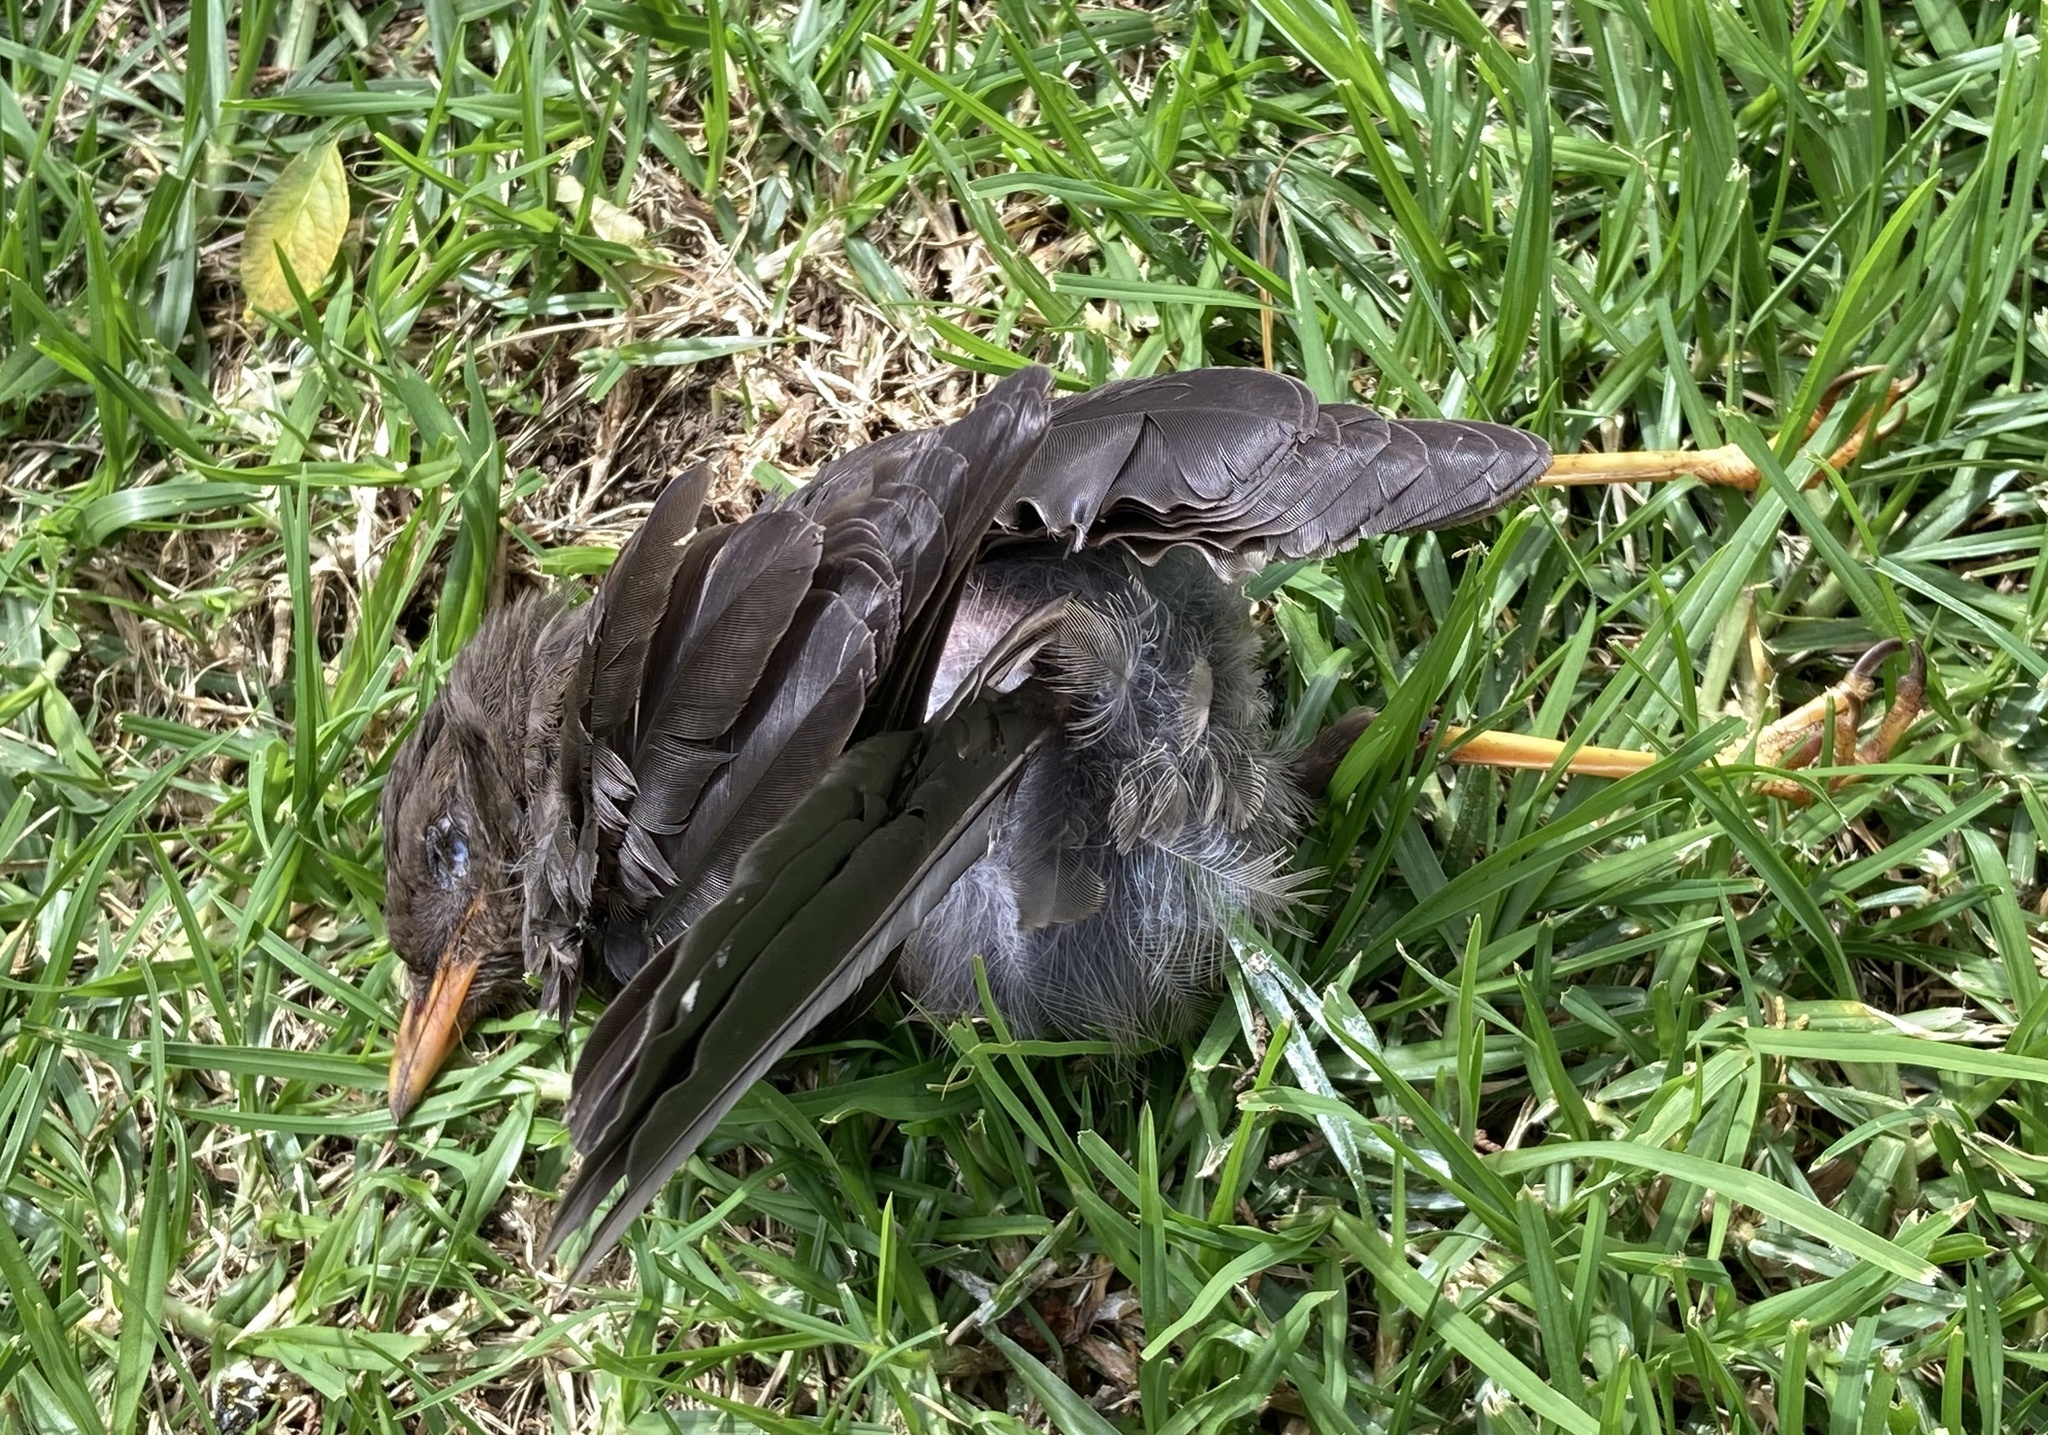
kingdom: Animalia
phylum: Chordata
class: Aves
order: Passeriformes
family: Turdidae
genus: Turdus
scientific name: Turdus fuscater
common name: Great thrush
